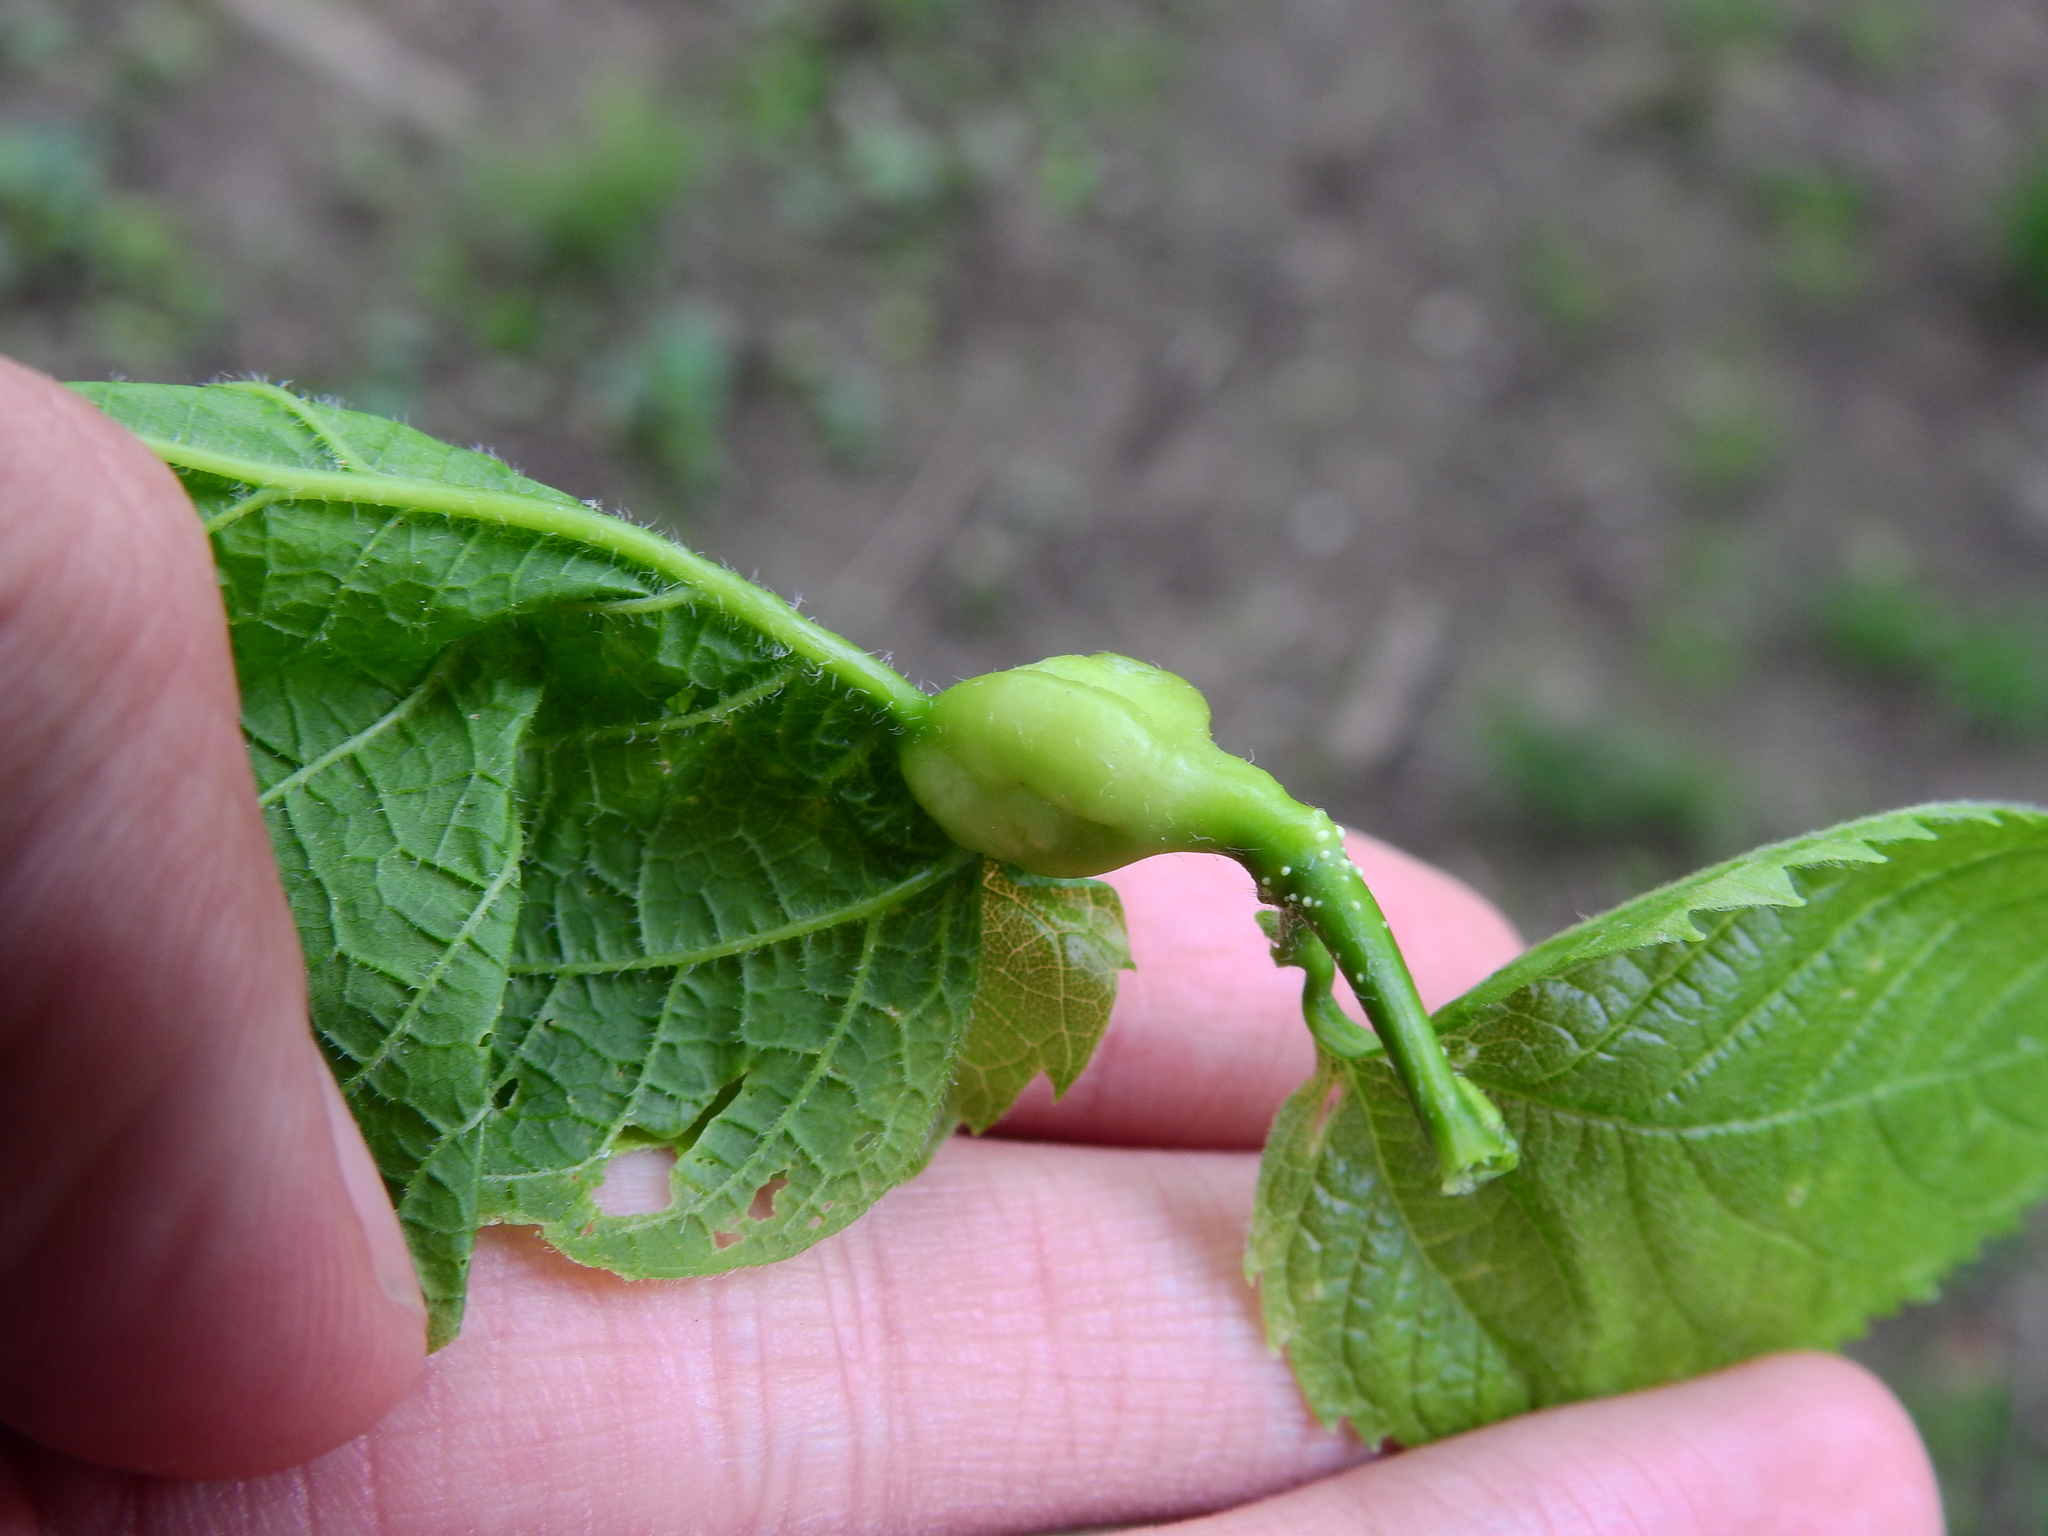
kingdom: Animalia
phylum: Arthropoda
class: Insecta
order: Hemiptera
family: Aphalaridae
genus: Pachypsylla
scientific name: Pachypsylla venusta
